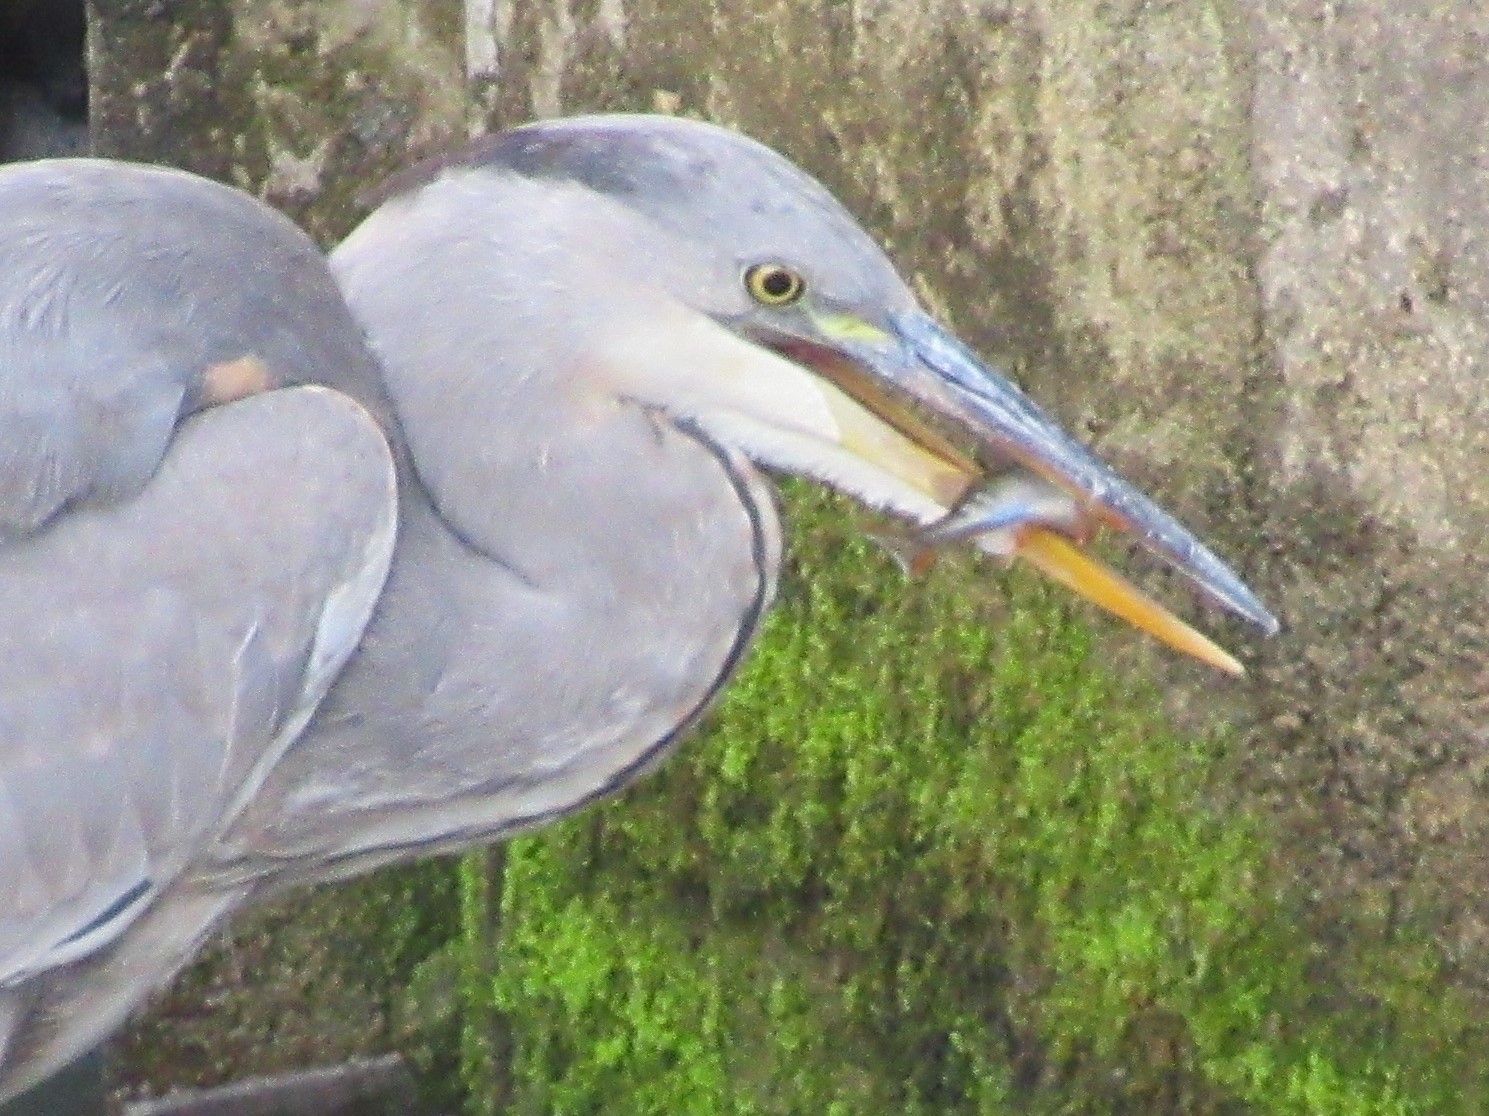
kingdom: Animalia
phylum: Chordata
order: Perciformes
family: Percidae
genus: Perca
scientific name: Perca fluviatilis
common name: Perch
